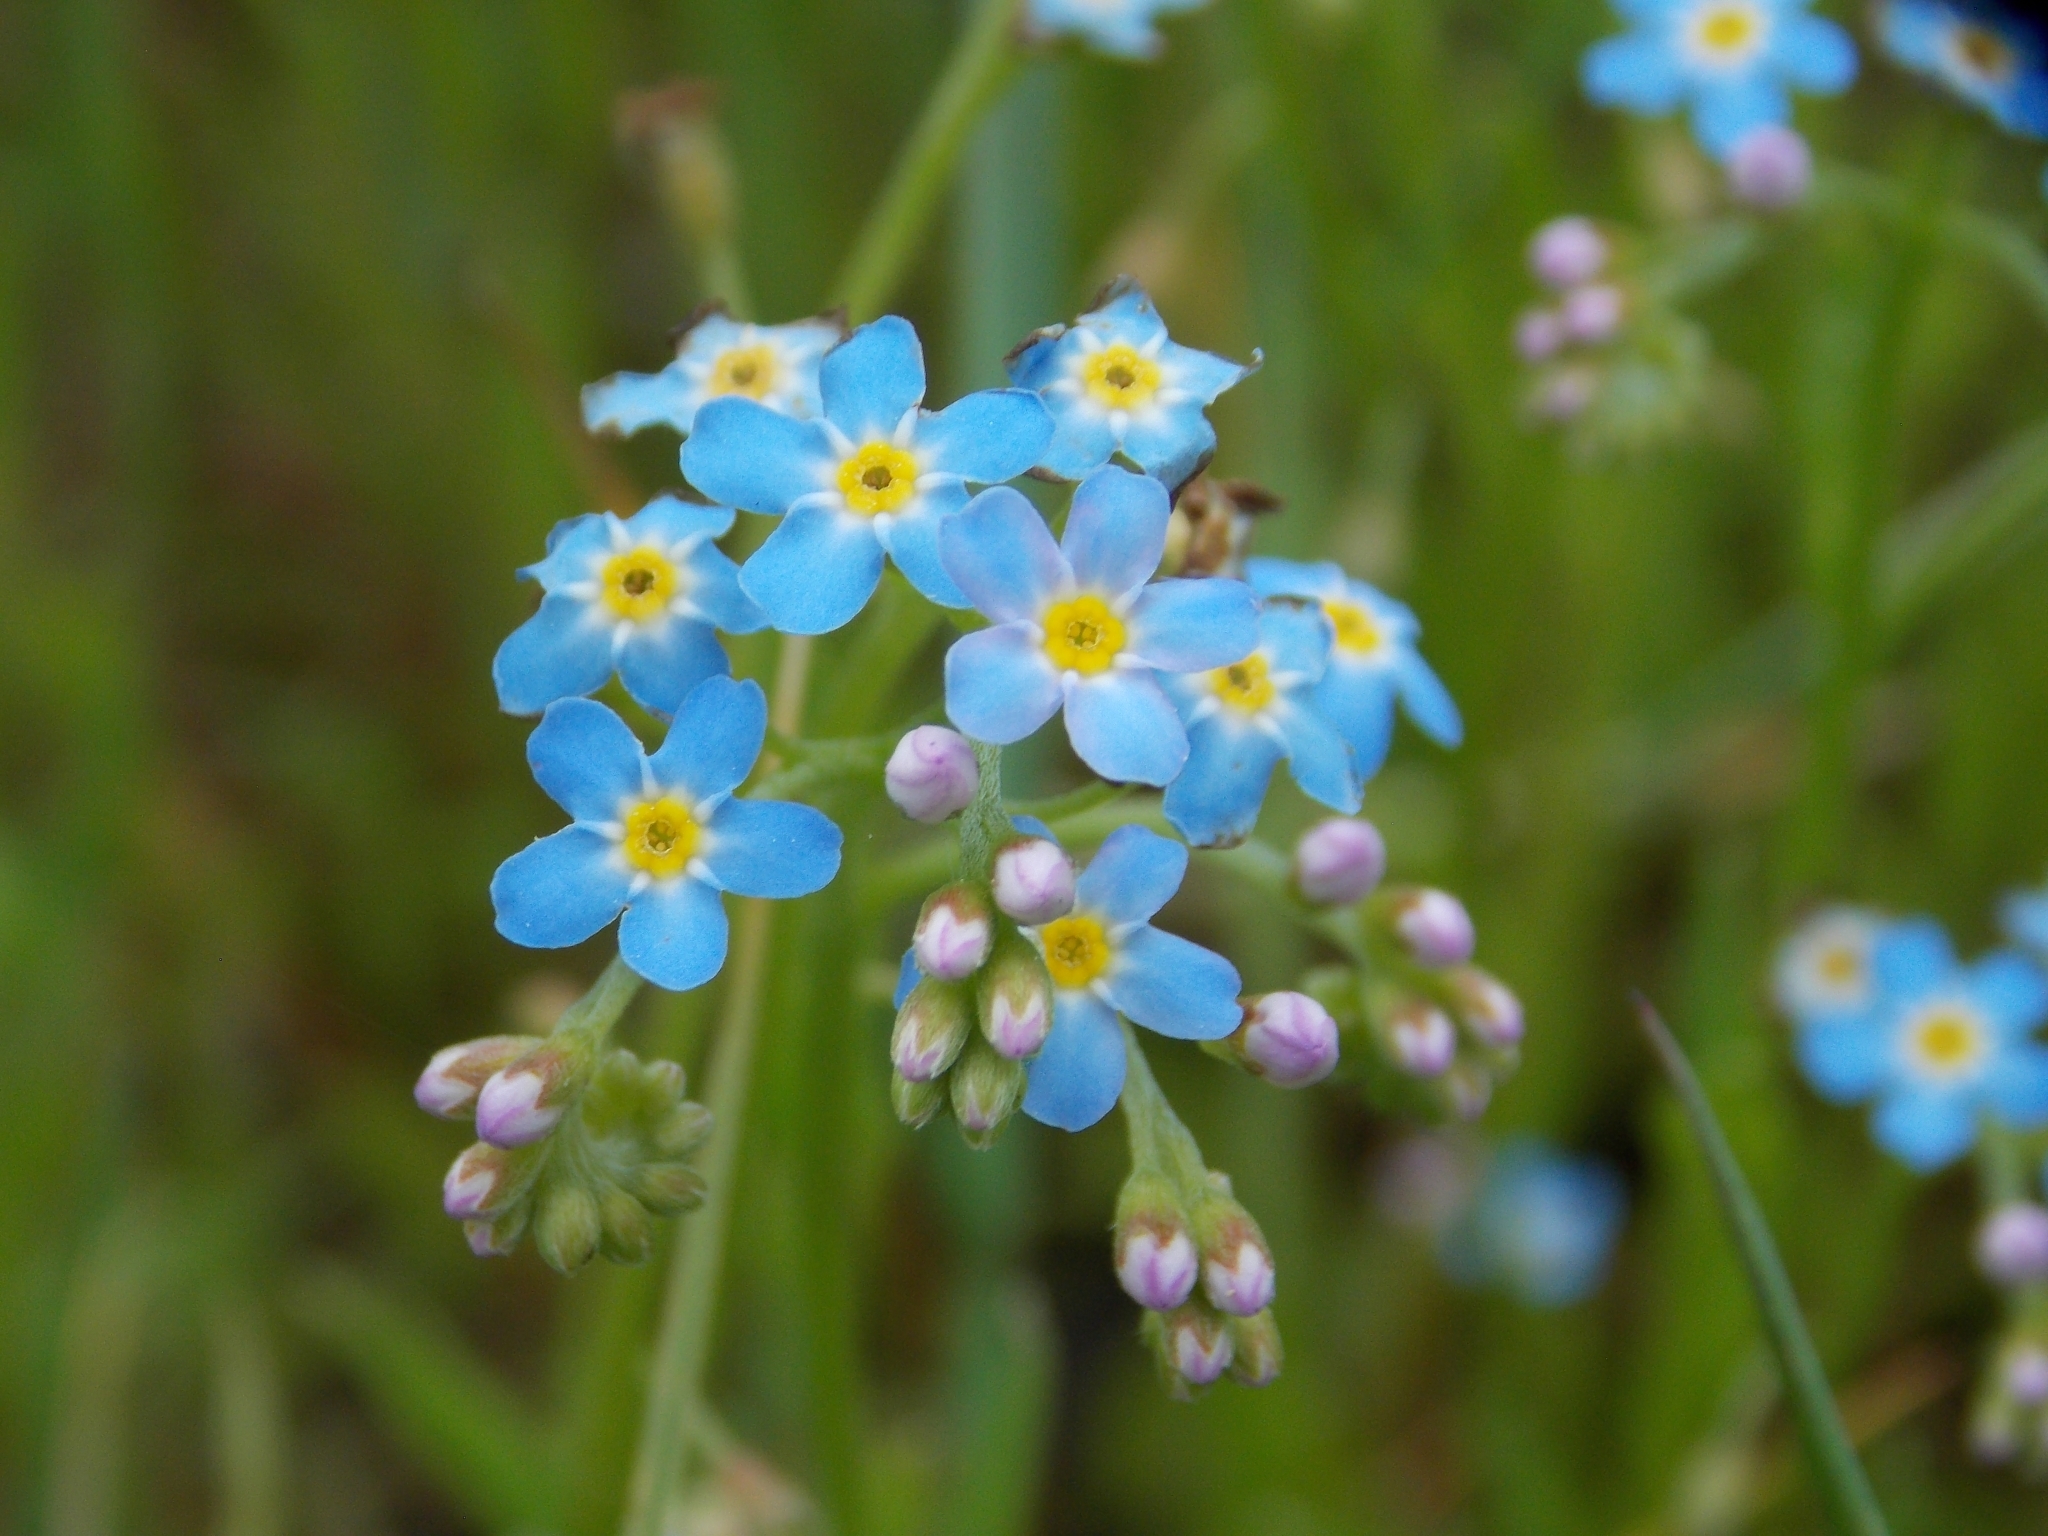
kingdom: Plantae
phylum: Tracheophyta
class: Magnoliopsida
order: Boraginales
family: Boraginaceae
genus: Myosotis
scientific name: Myosotis scorpioides
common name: Water forget-me-not
